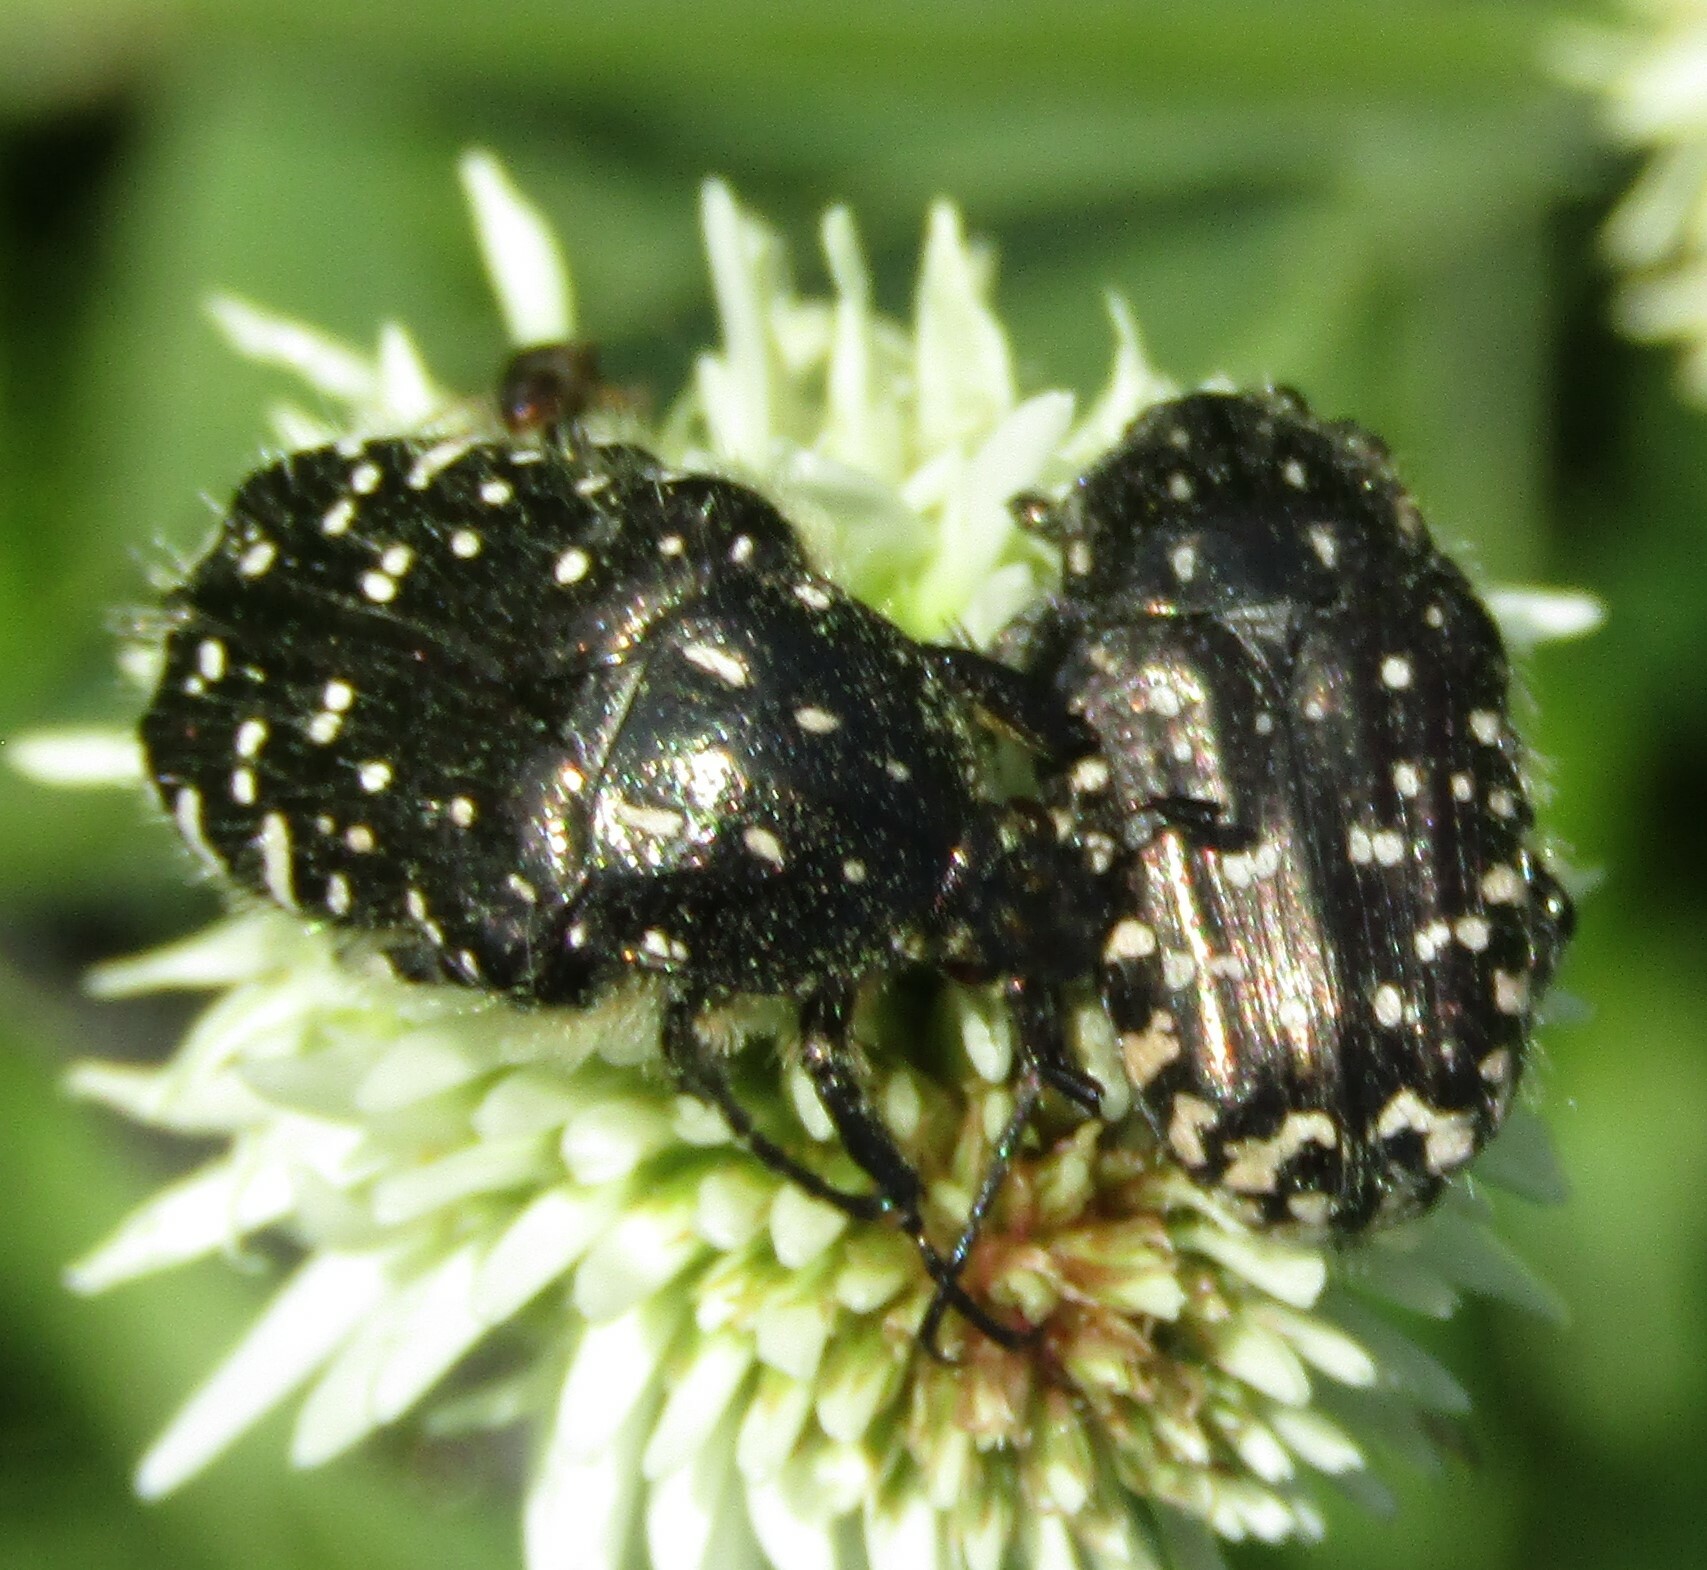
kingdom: Animalia
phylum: Arthropoda
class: Insecta
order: Coleoptera
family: Scarabaeidae
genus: Oxythyrea
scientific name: Oxythyrea funesta
